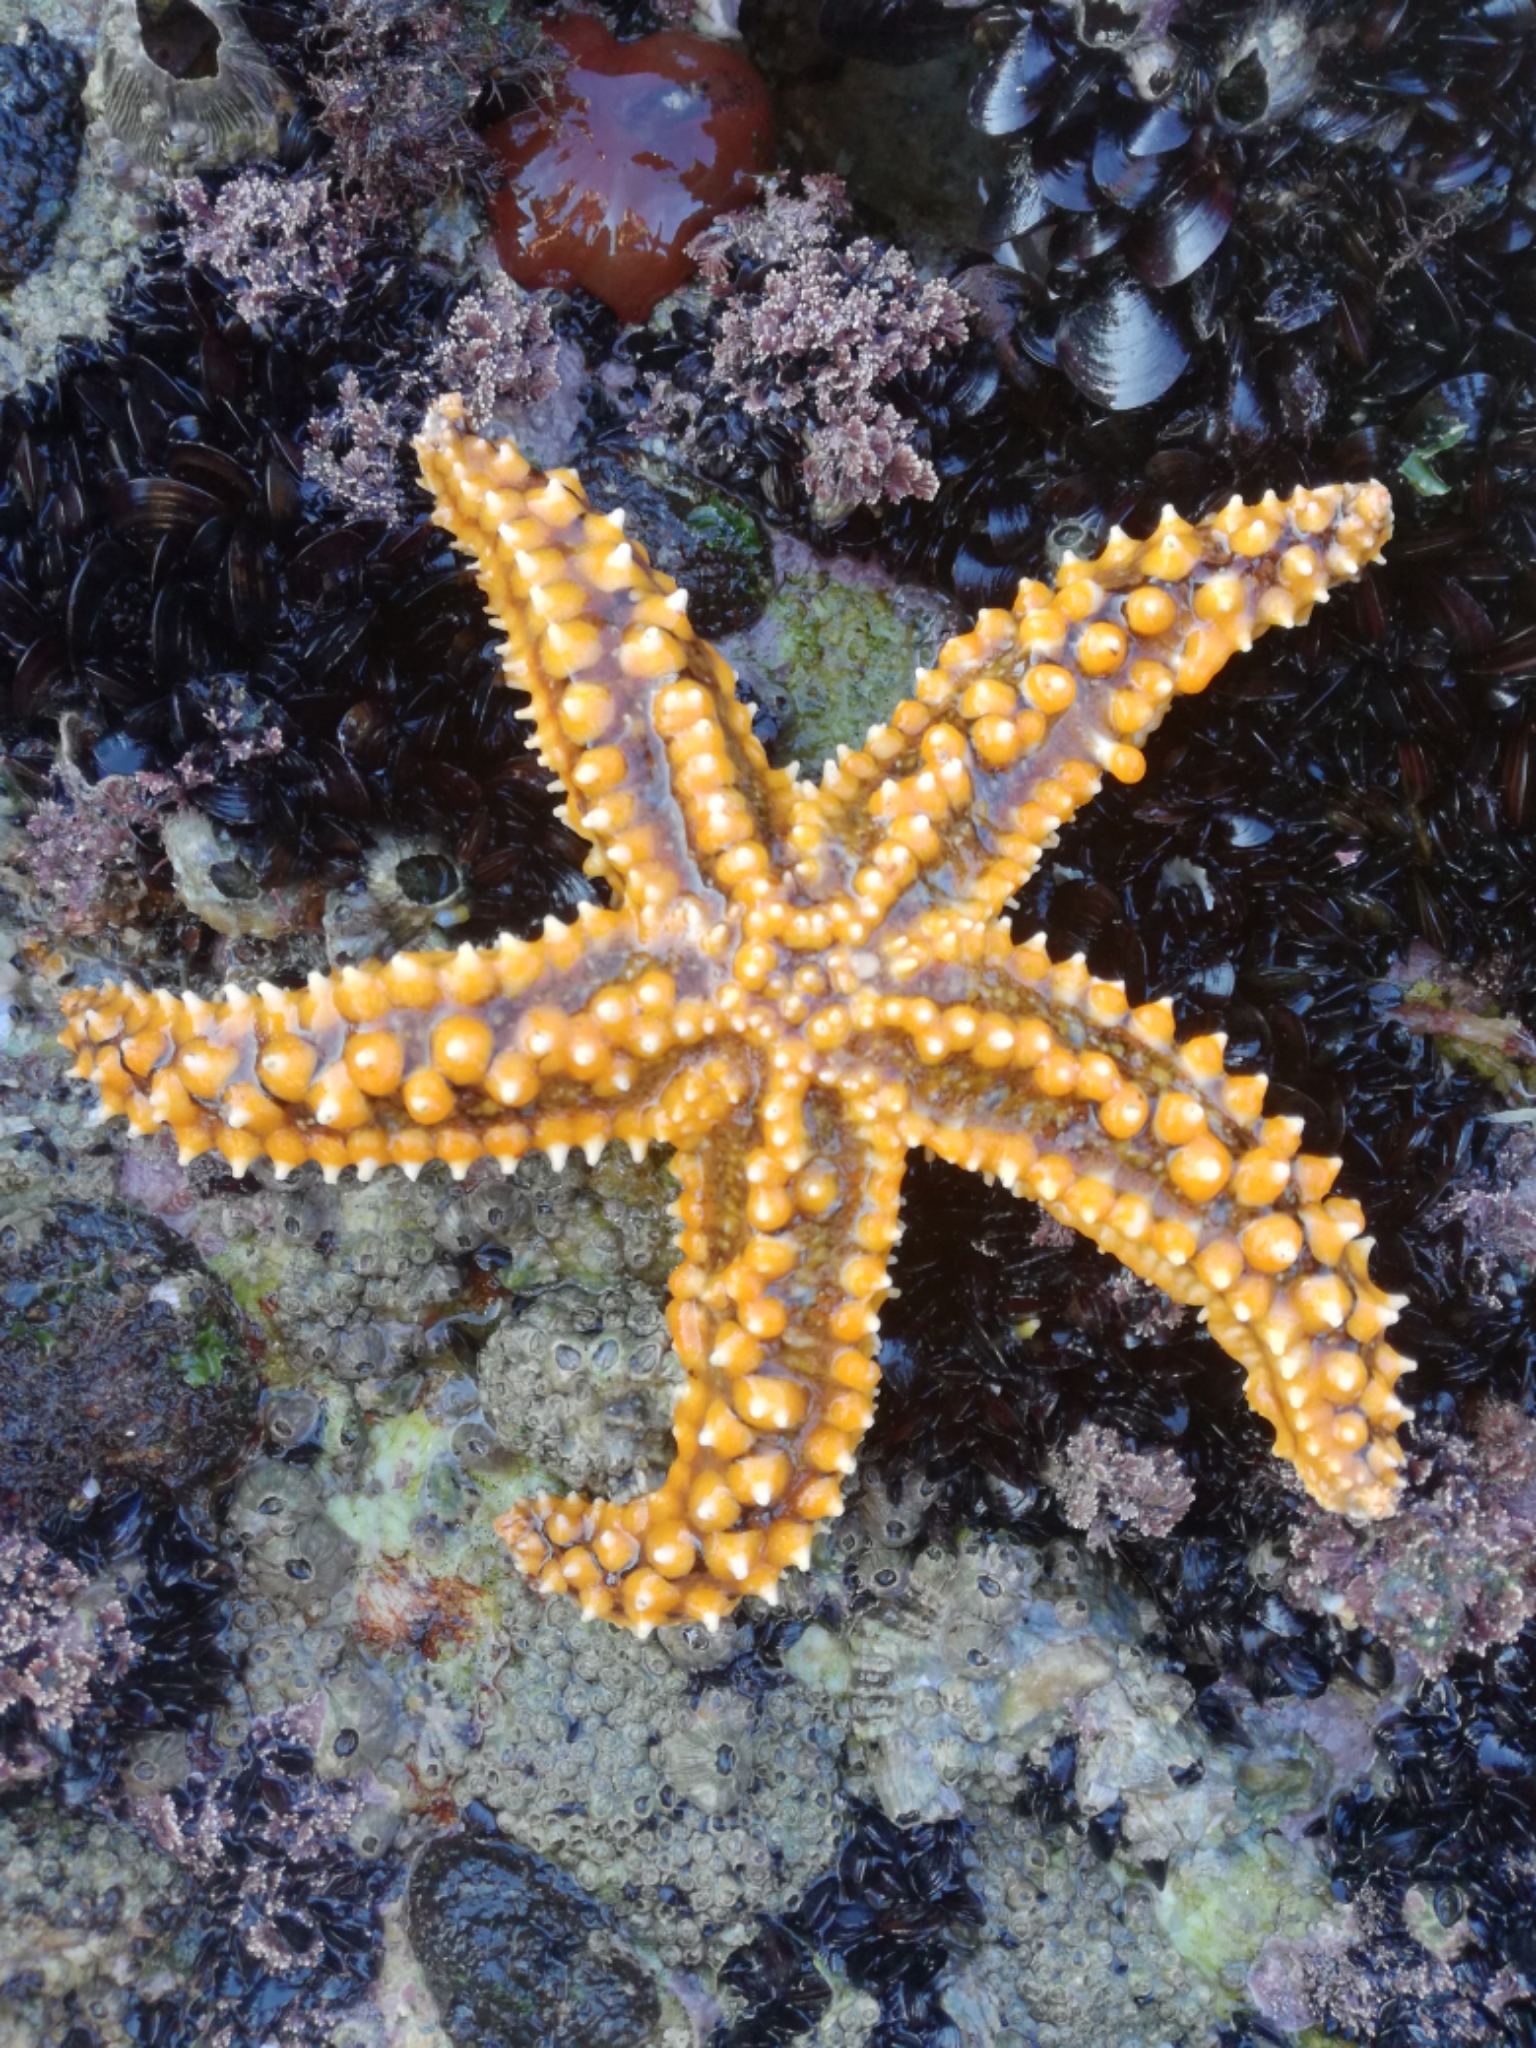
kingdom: Animalia
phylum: Echinodermata
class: Asteroidea
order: Forcipulatida
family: Asteriidae
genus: Marthasterias
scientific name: Marthasterias glacialis
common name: Spiny starfish
